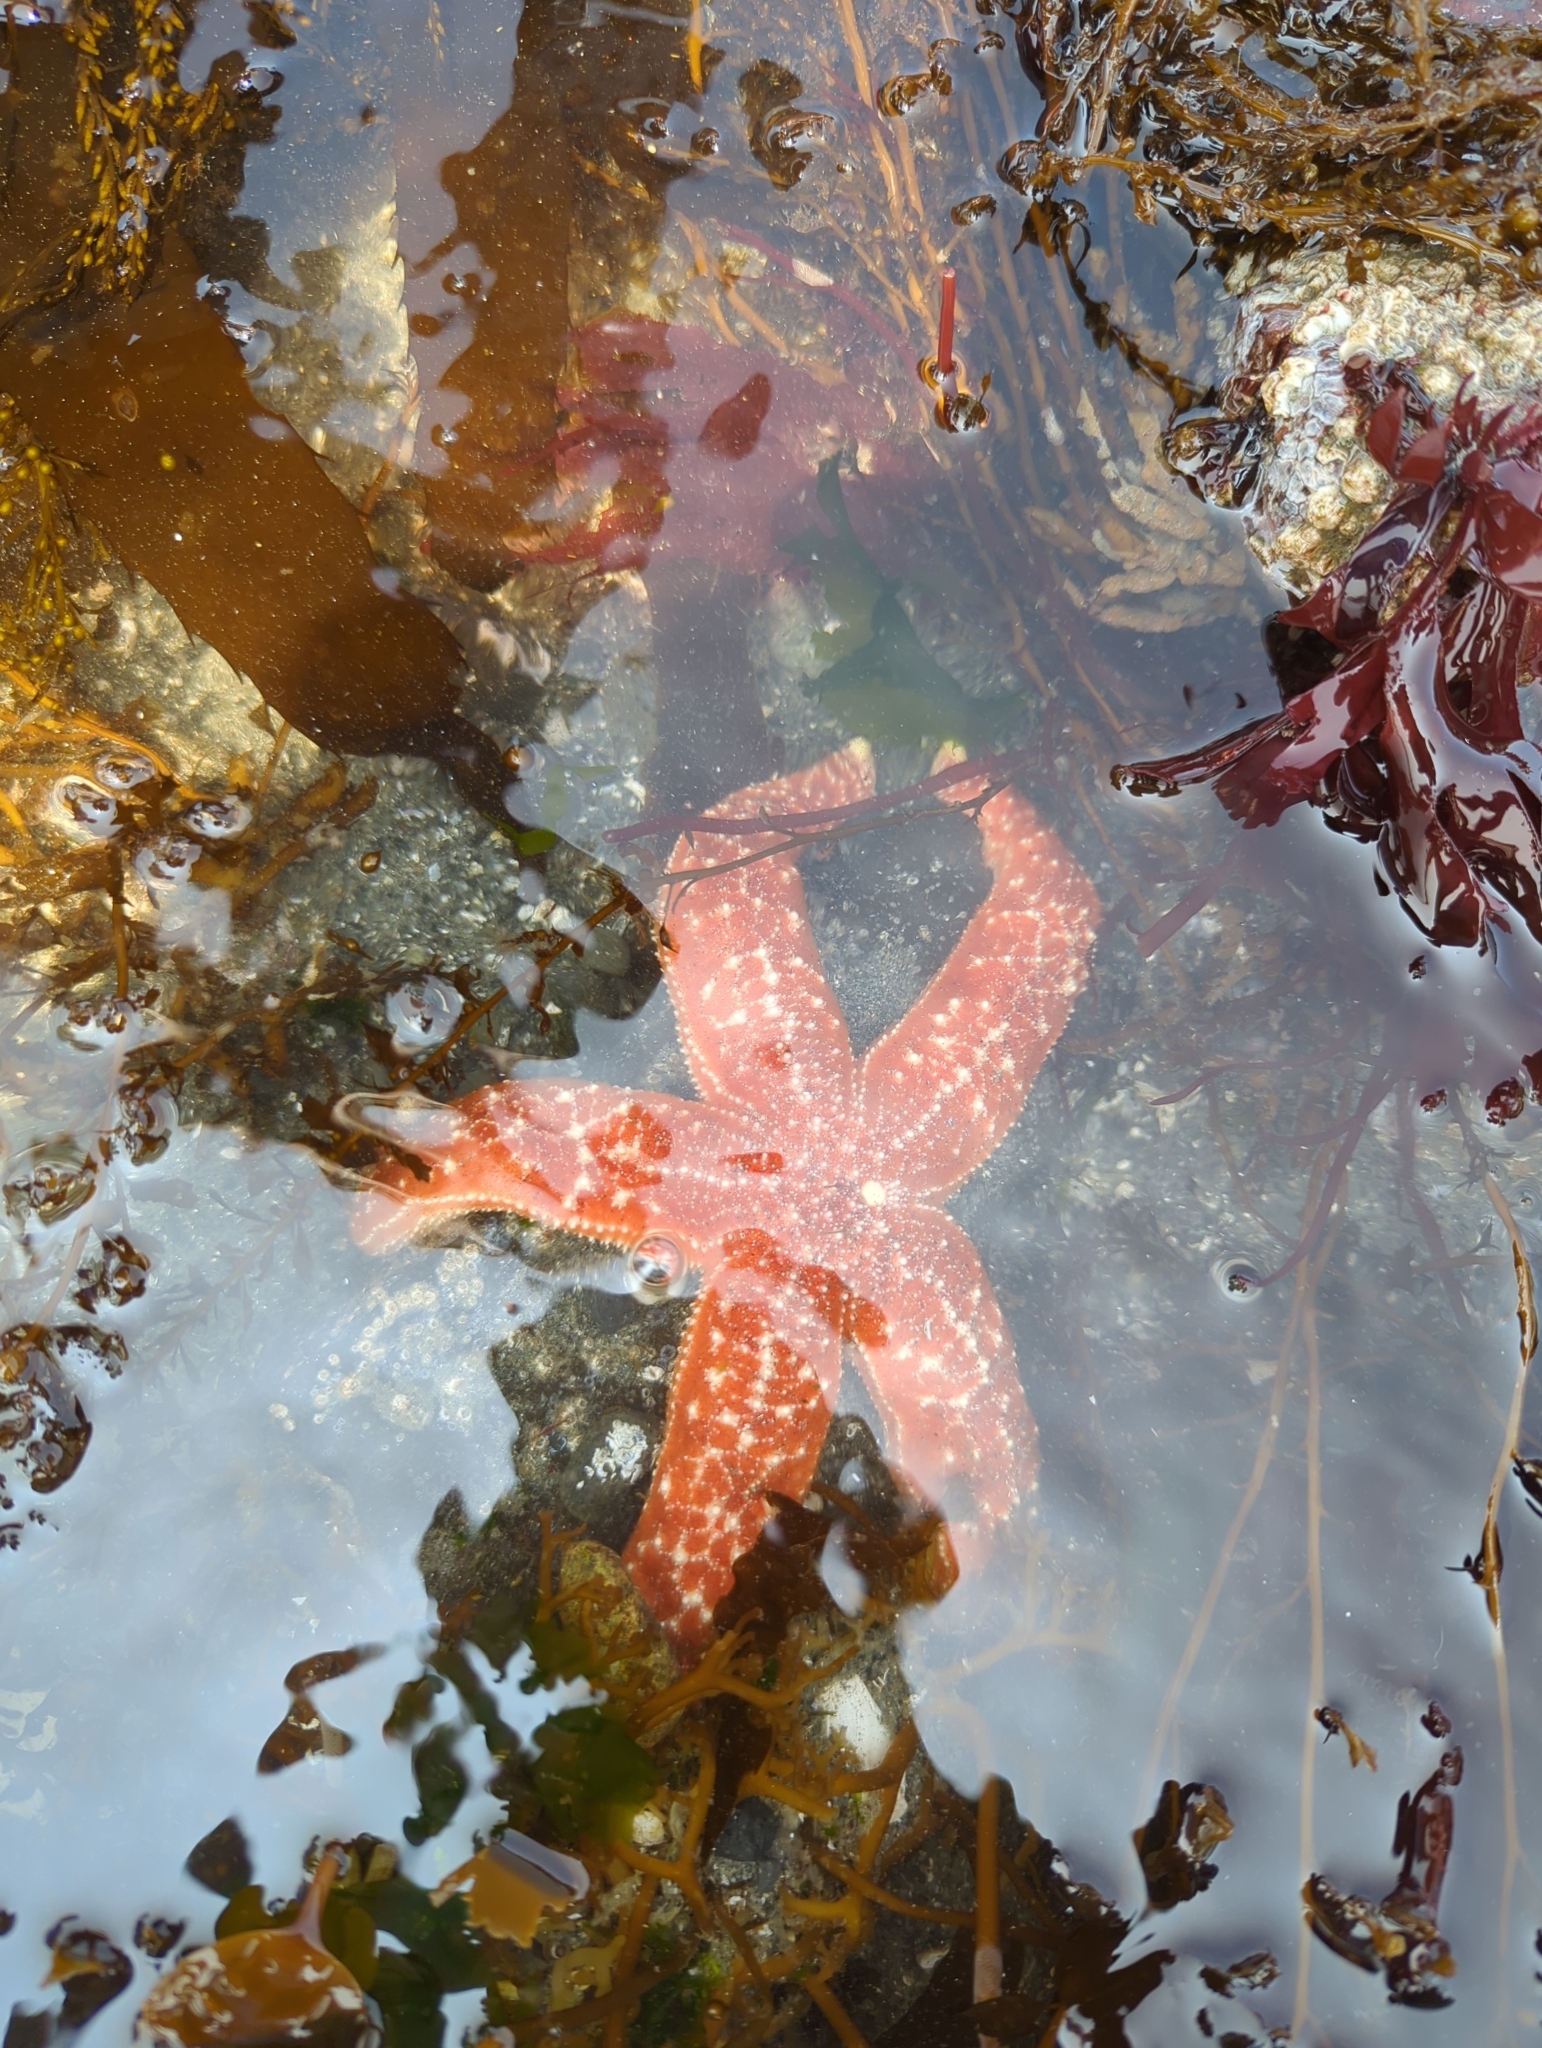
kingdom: Animalia
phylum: Echinodermata
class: Asteroidea
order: Forcipulatida
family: Asteriidae
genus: Evasterias
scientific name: Evasterias troschelii
